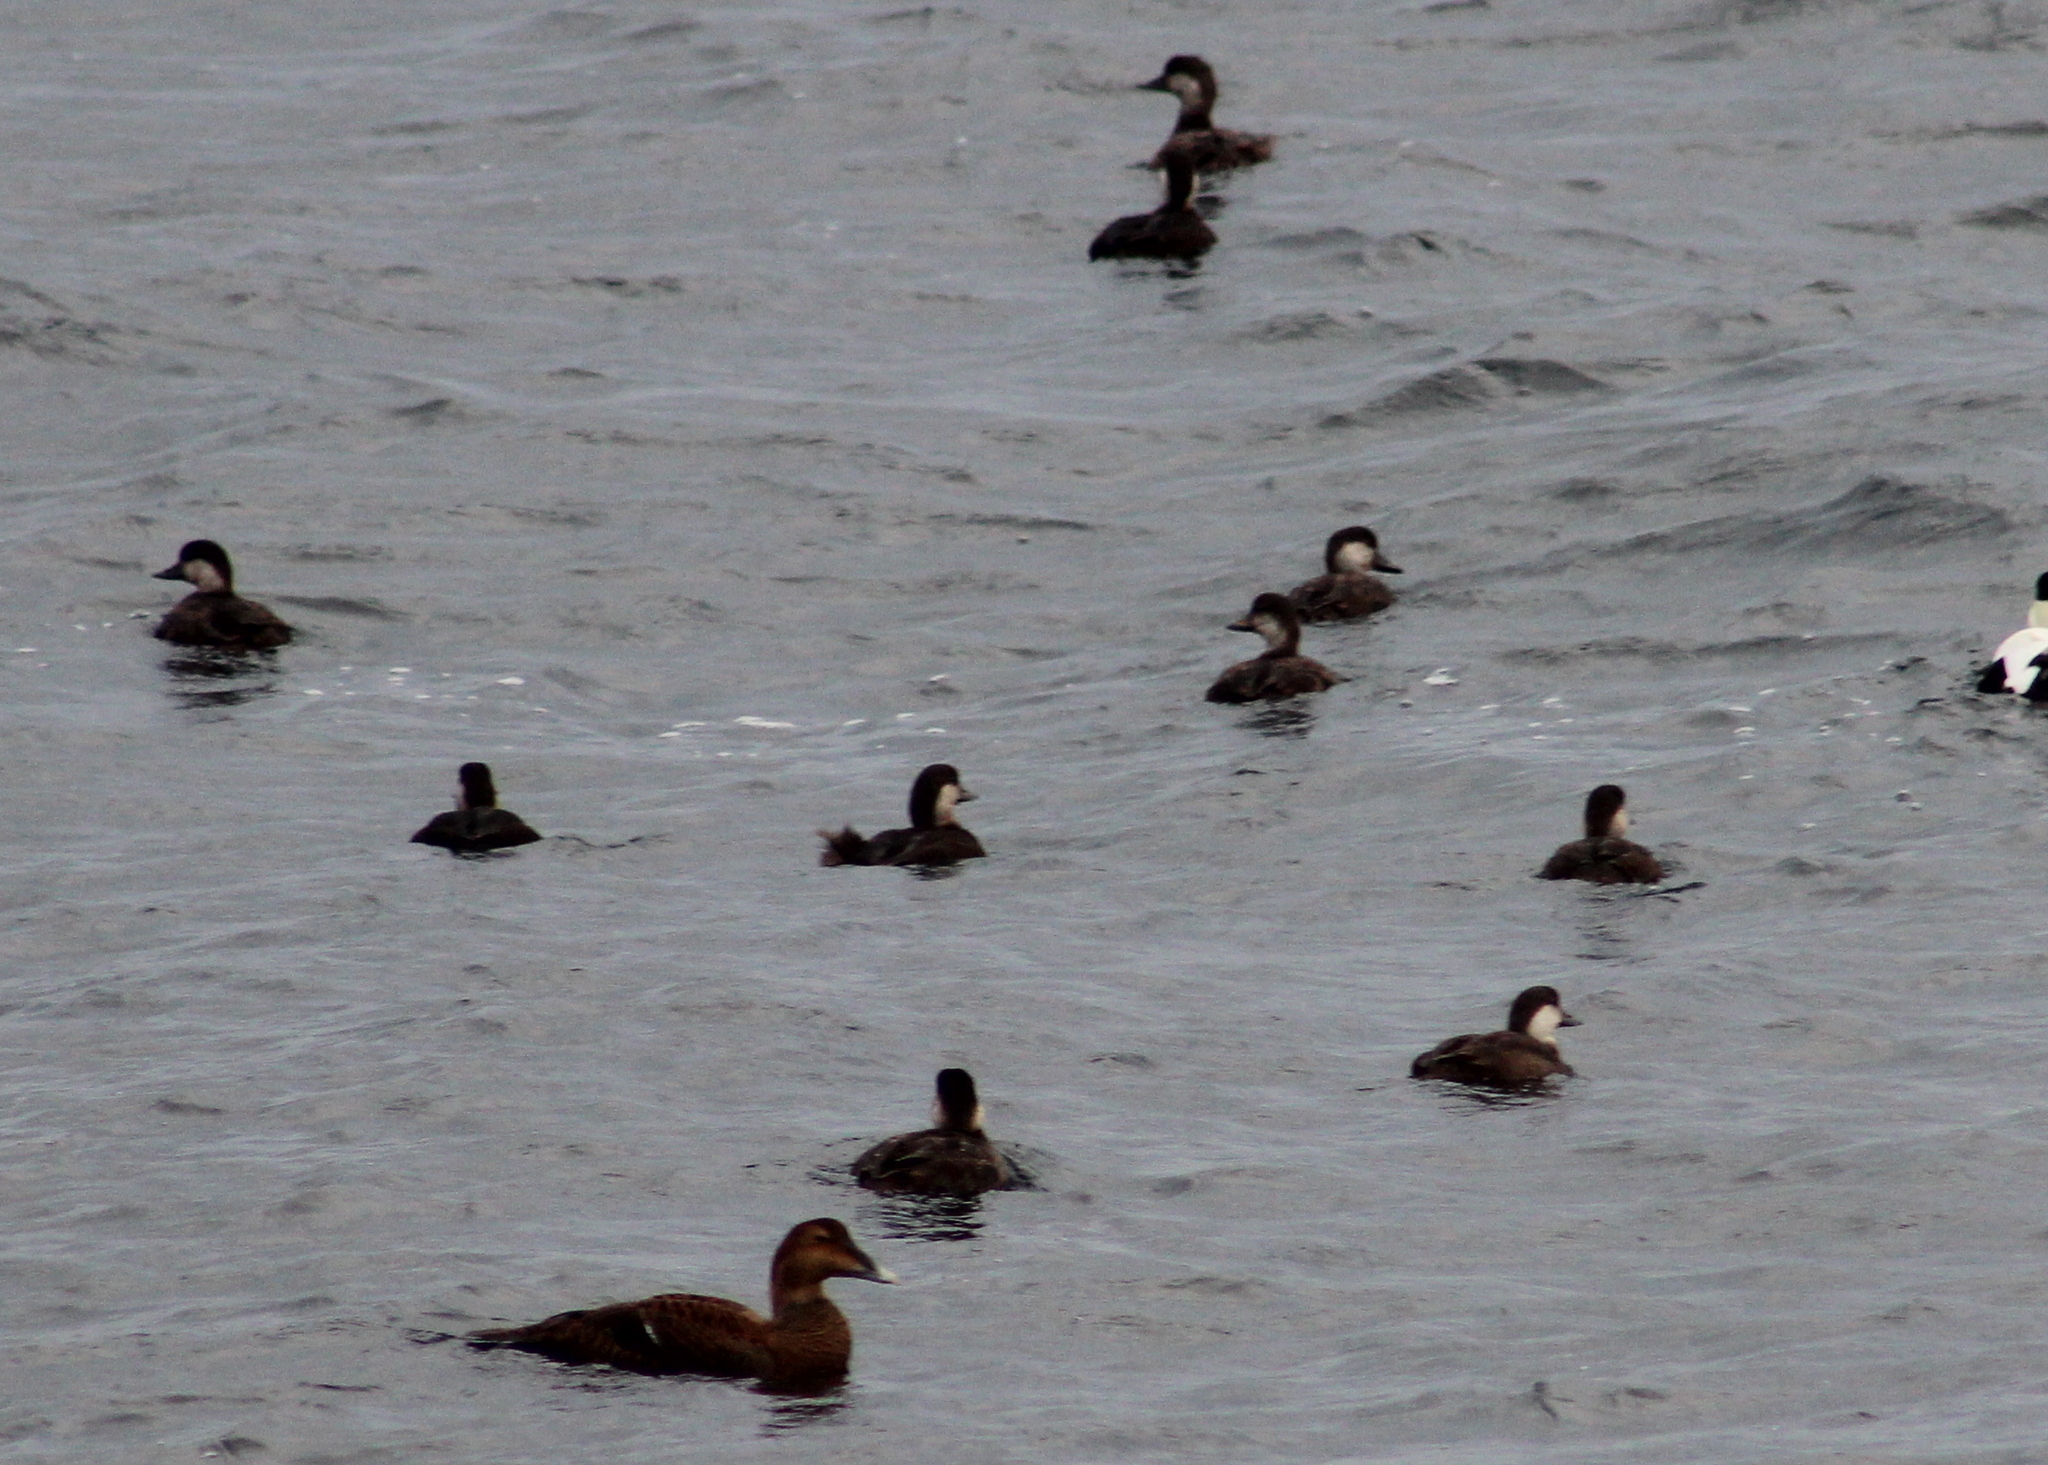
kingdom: Animalia
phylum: Chordata
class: Aves
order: Anseriformes
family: Anatidae
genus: Melanitta
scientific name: Melanitta americana
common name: Black scoter
